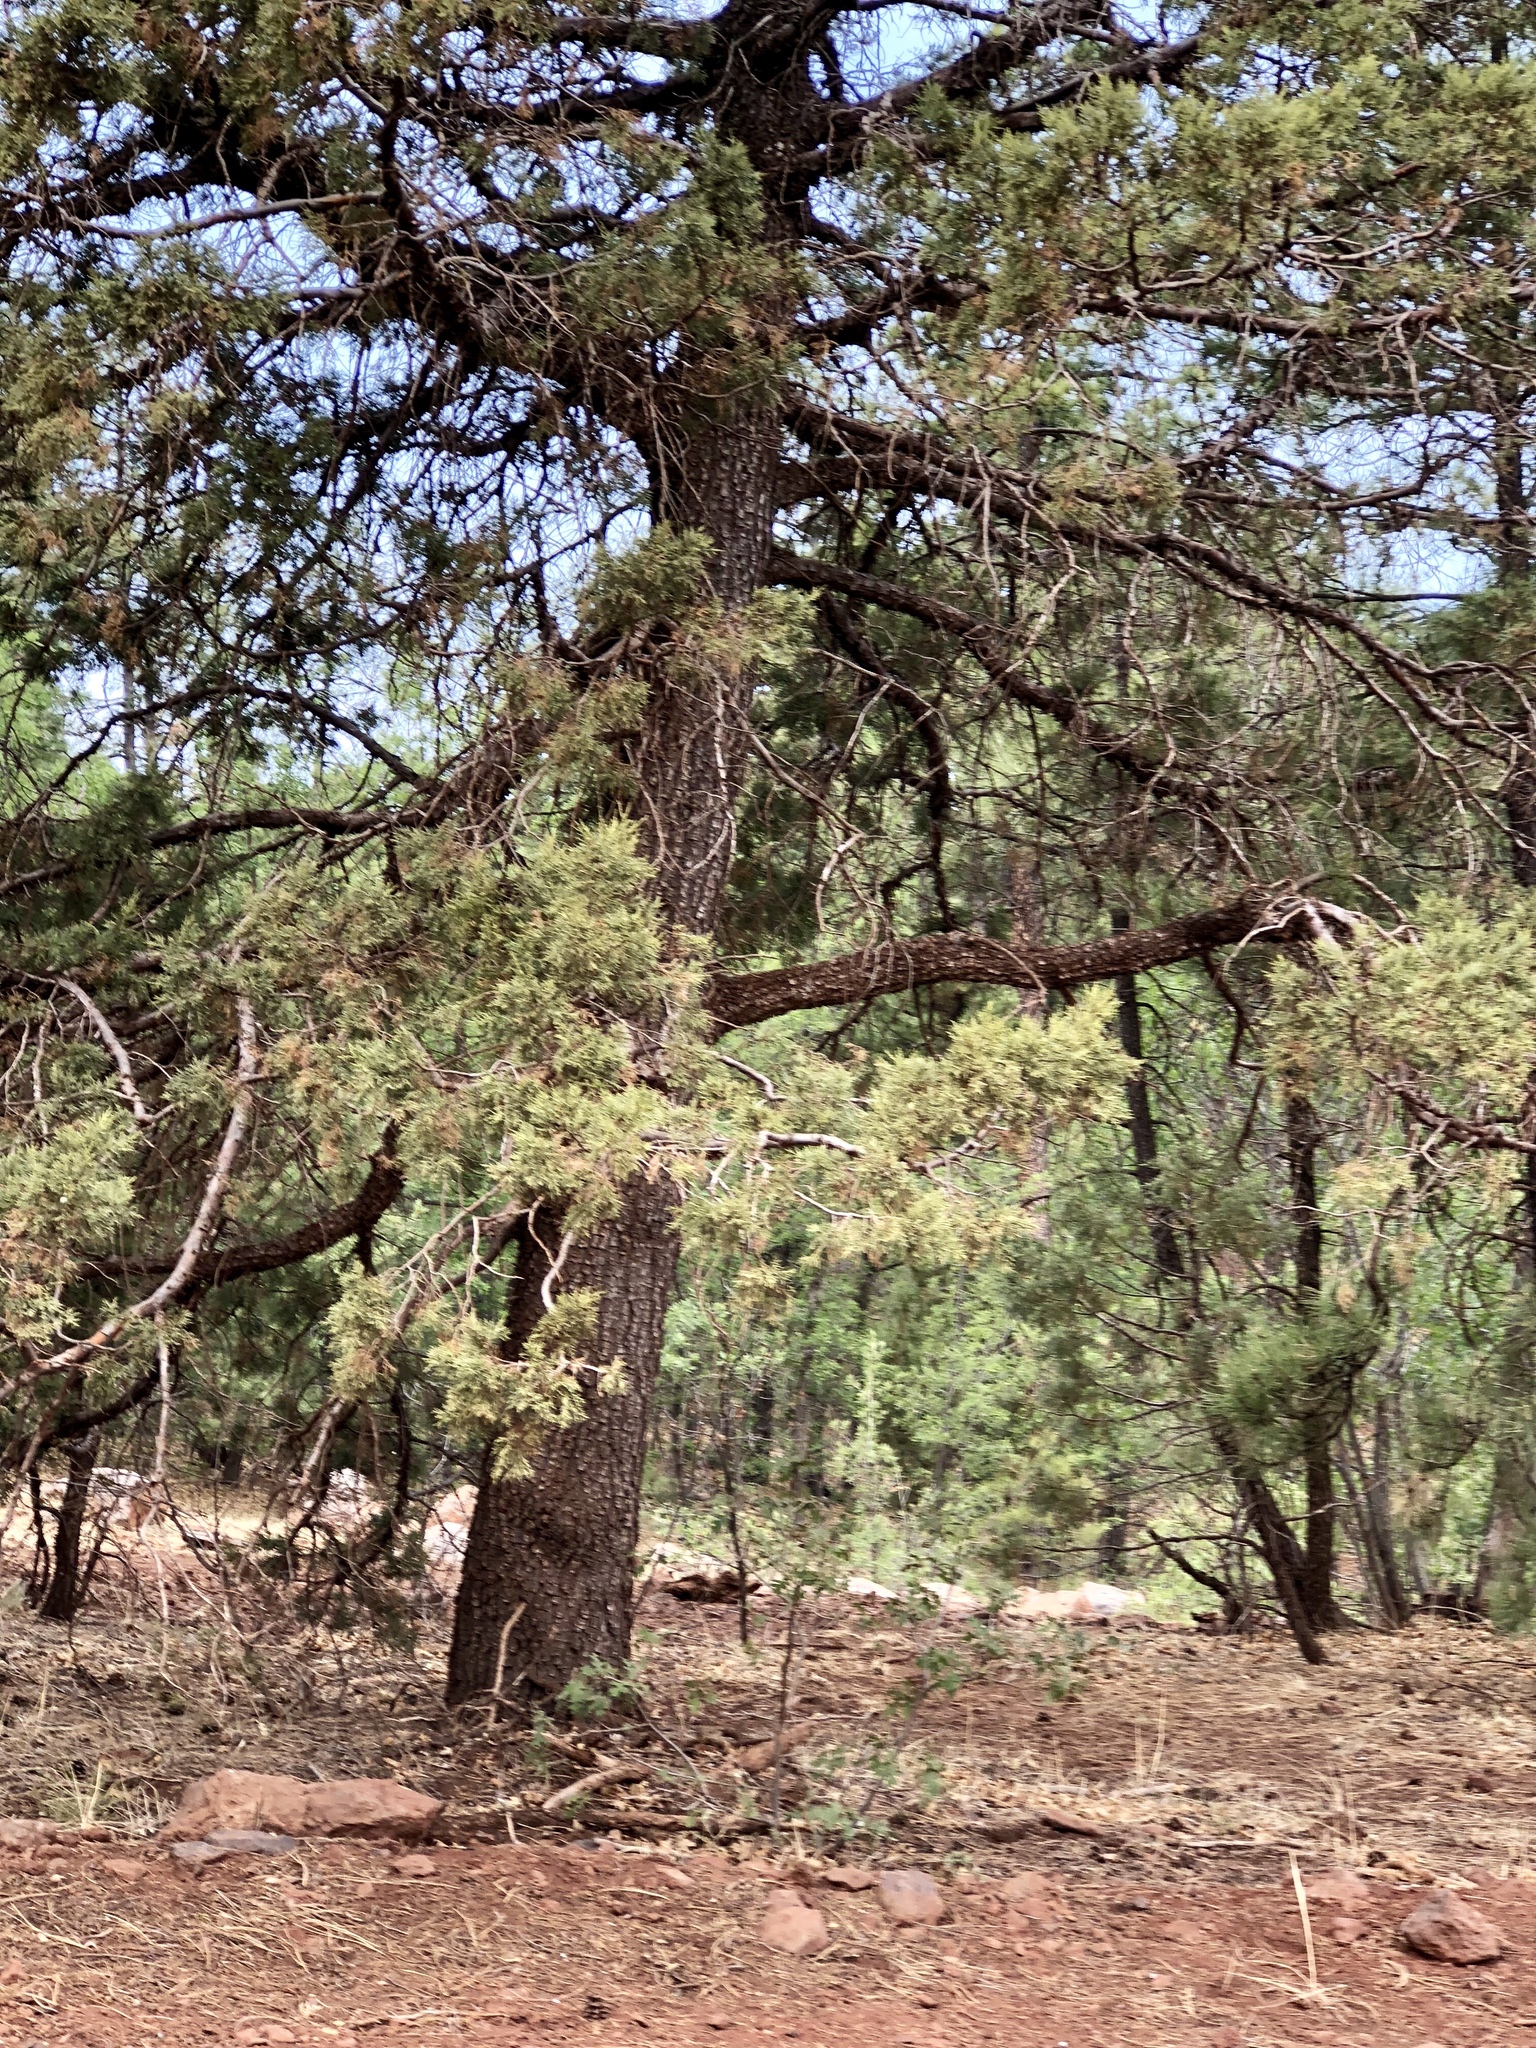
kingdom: Plantae
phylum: Tracheophyta
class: Pinopsida
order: Pinales
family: Cupressaceae
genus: Juniperus
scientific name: Juniperus deppeana
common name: Alligator juniper
